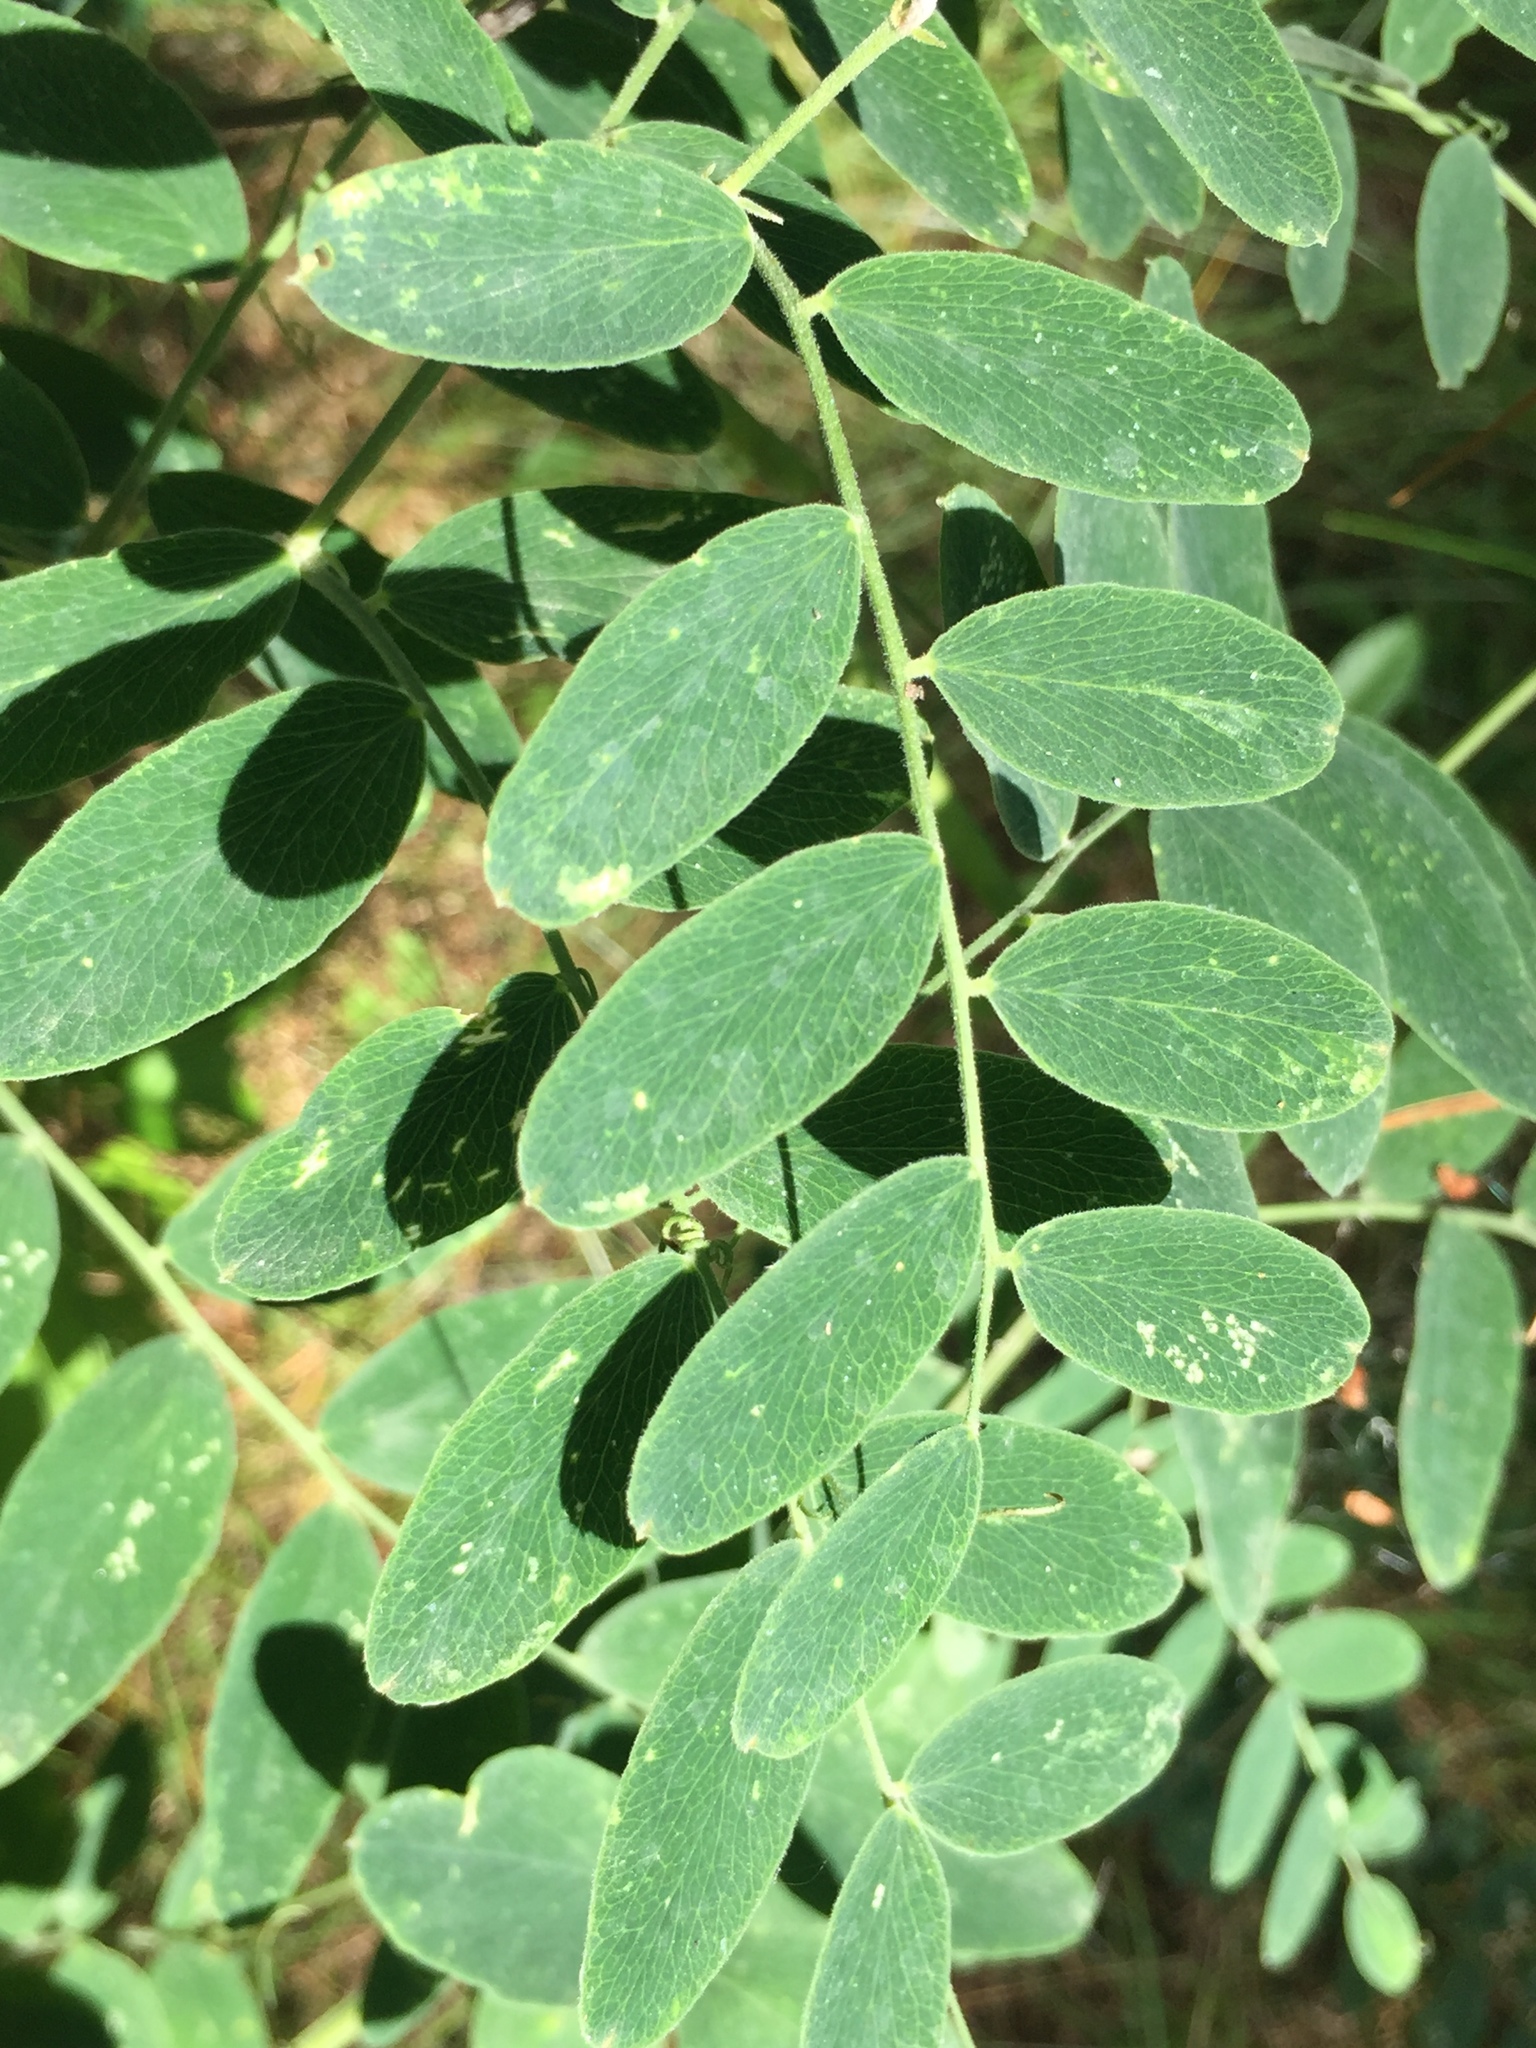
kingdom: Plantae
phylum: Tracheophyta
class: Magnoliopsida
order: Fabales
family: Fabaceae
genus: Lathyrus
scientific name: Lathyrus venosus
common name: Forest-pea
